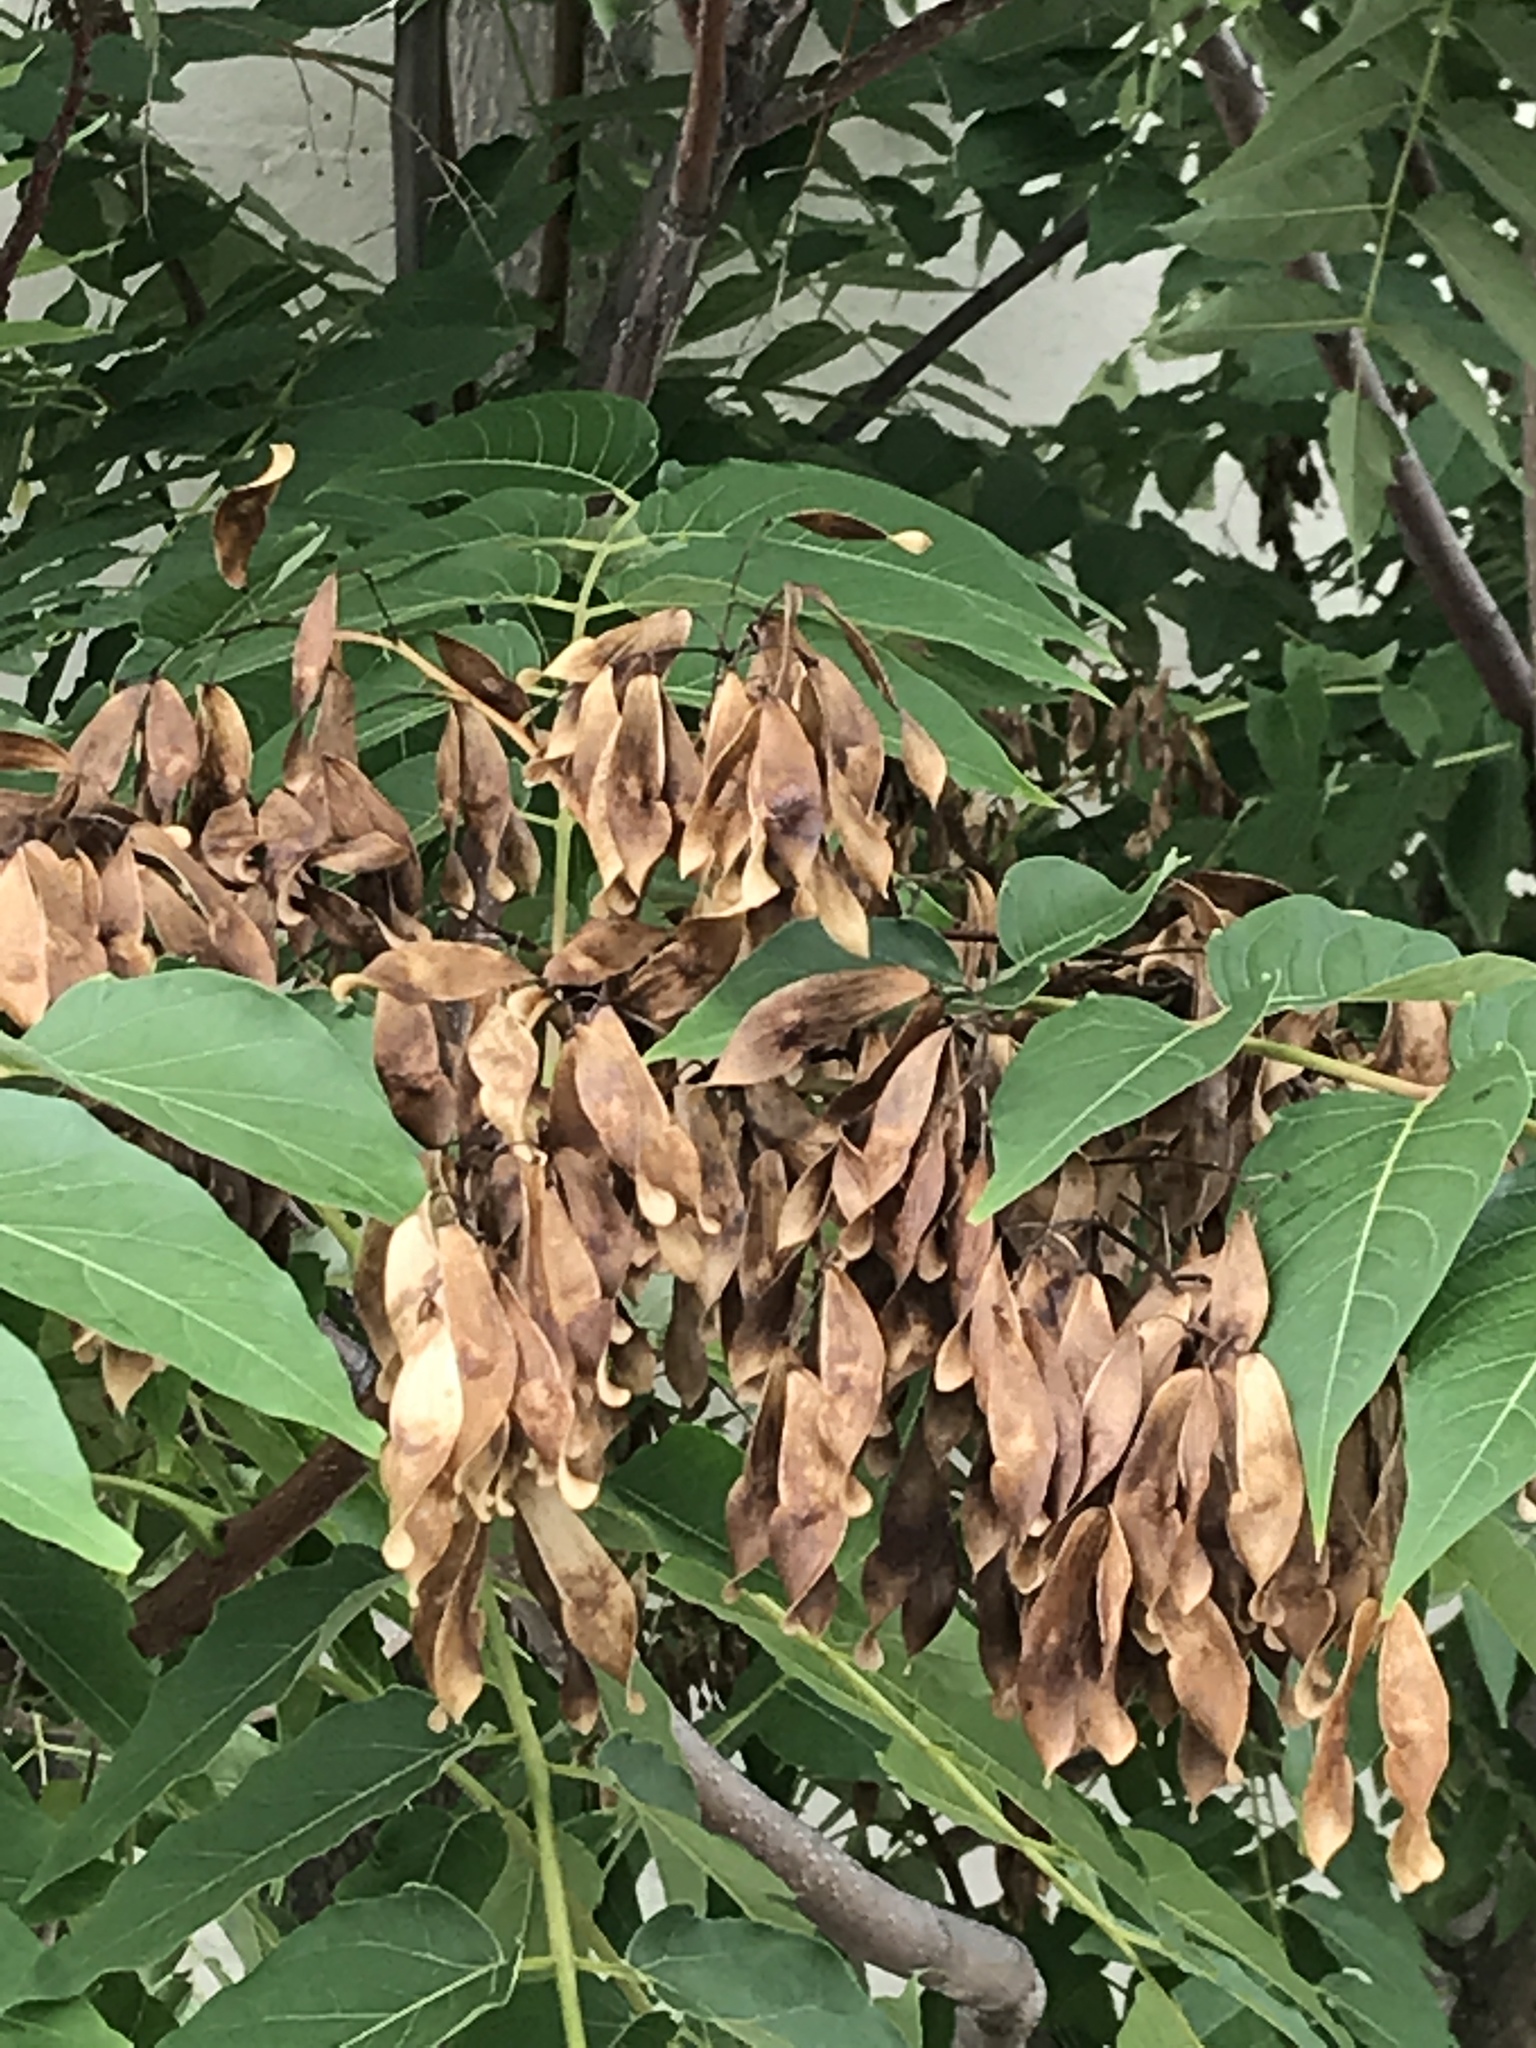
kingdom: Plantae
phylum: Tracheophyta
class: Magnoliopsida
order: Sapindales
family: Simaroubaceae
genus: Ailanthus
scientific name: Ailanthus altissima
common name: Tree-of-heaven
